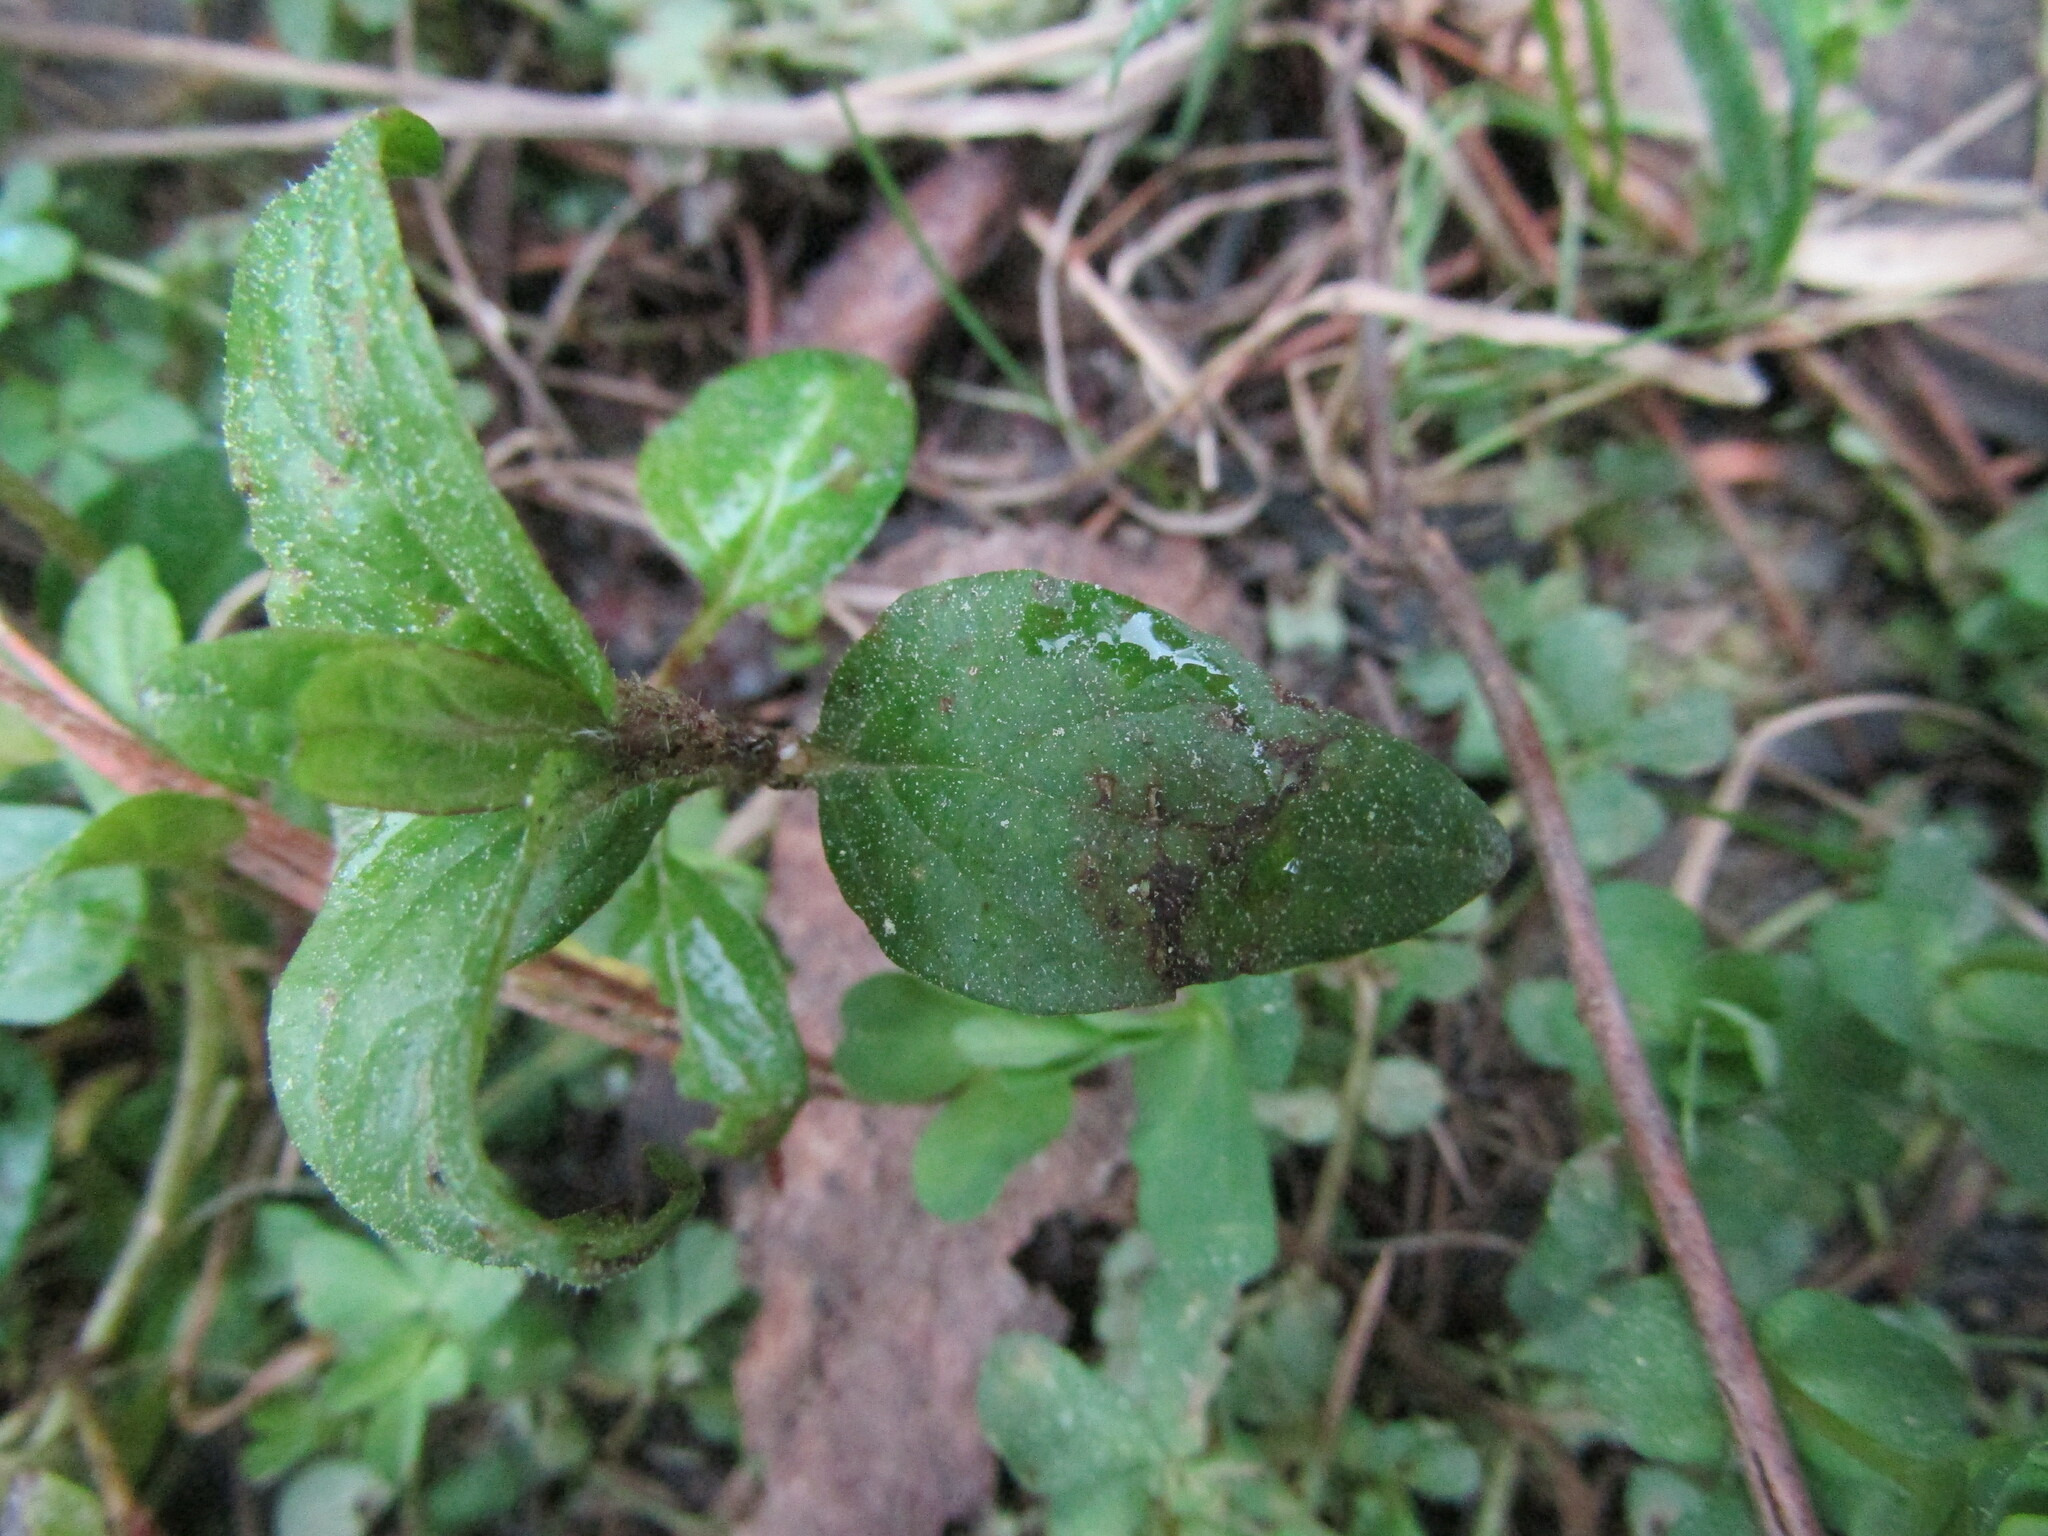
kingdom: Plantae
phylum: Tracheophyta
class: Magnoliopsida
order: Lamiales
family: Lamiaceae
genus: Prunella
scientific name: Prunella vulgaris
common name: Heal-all
